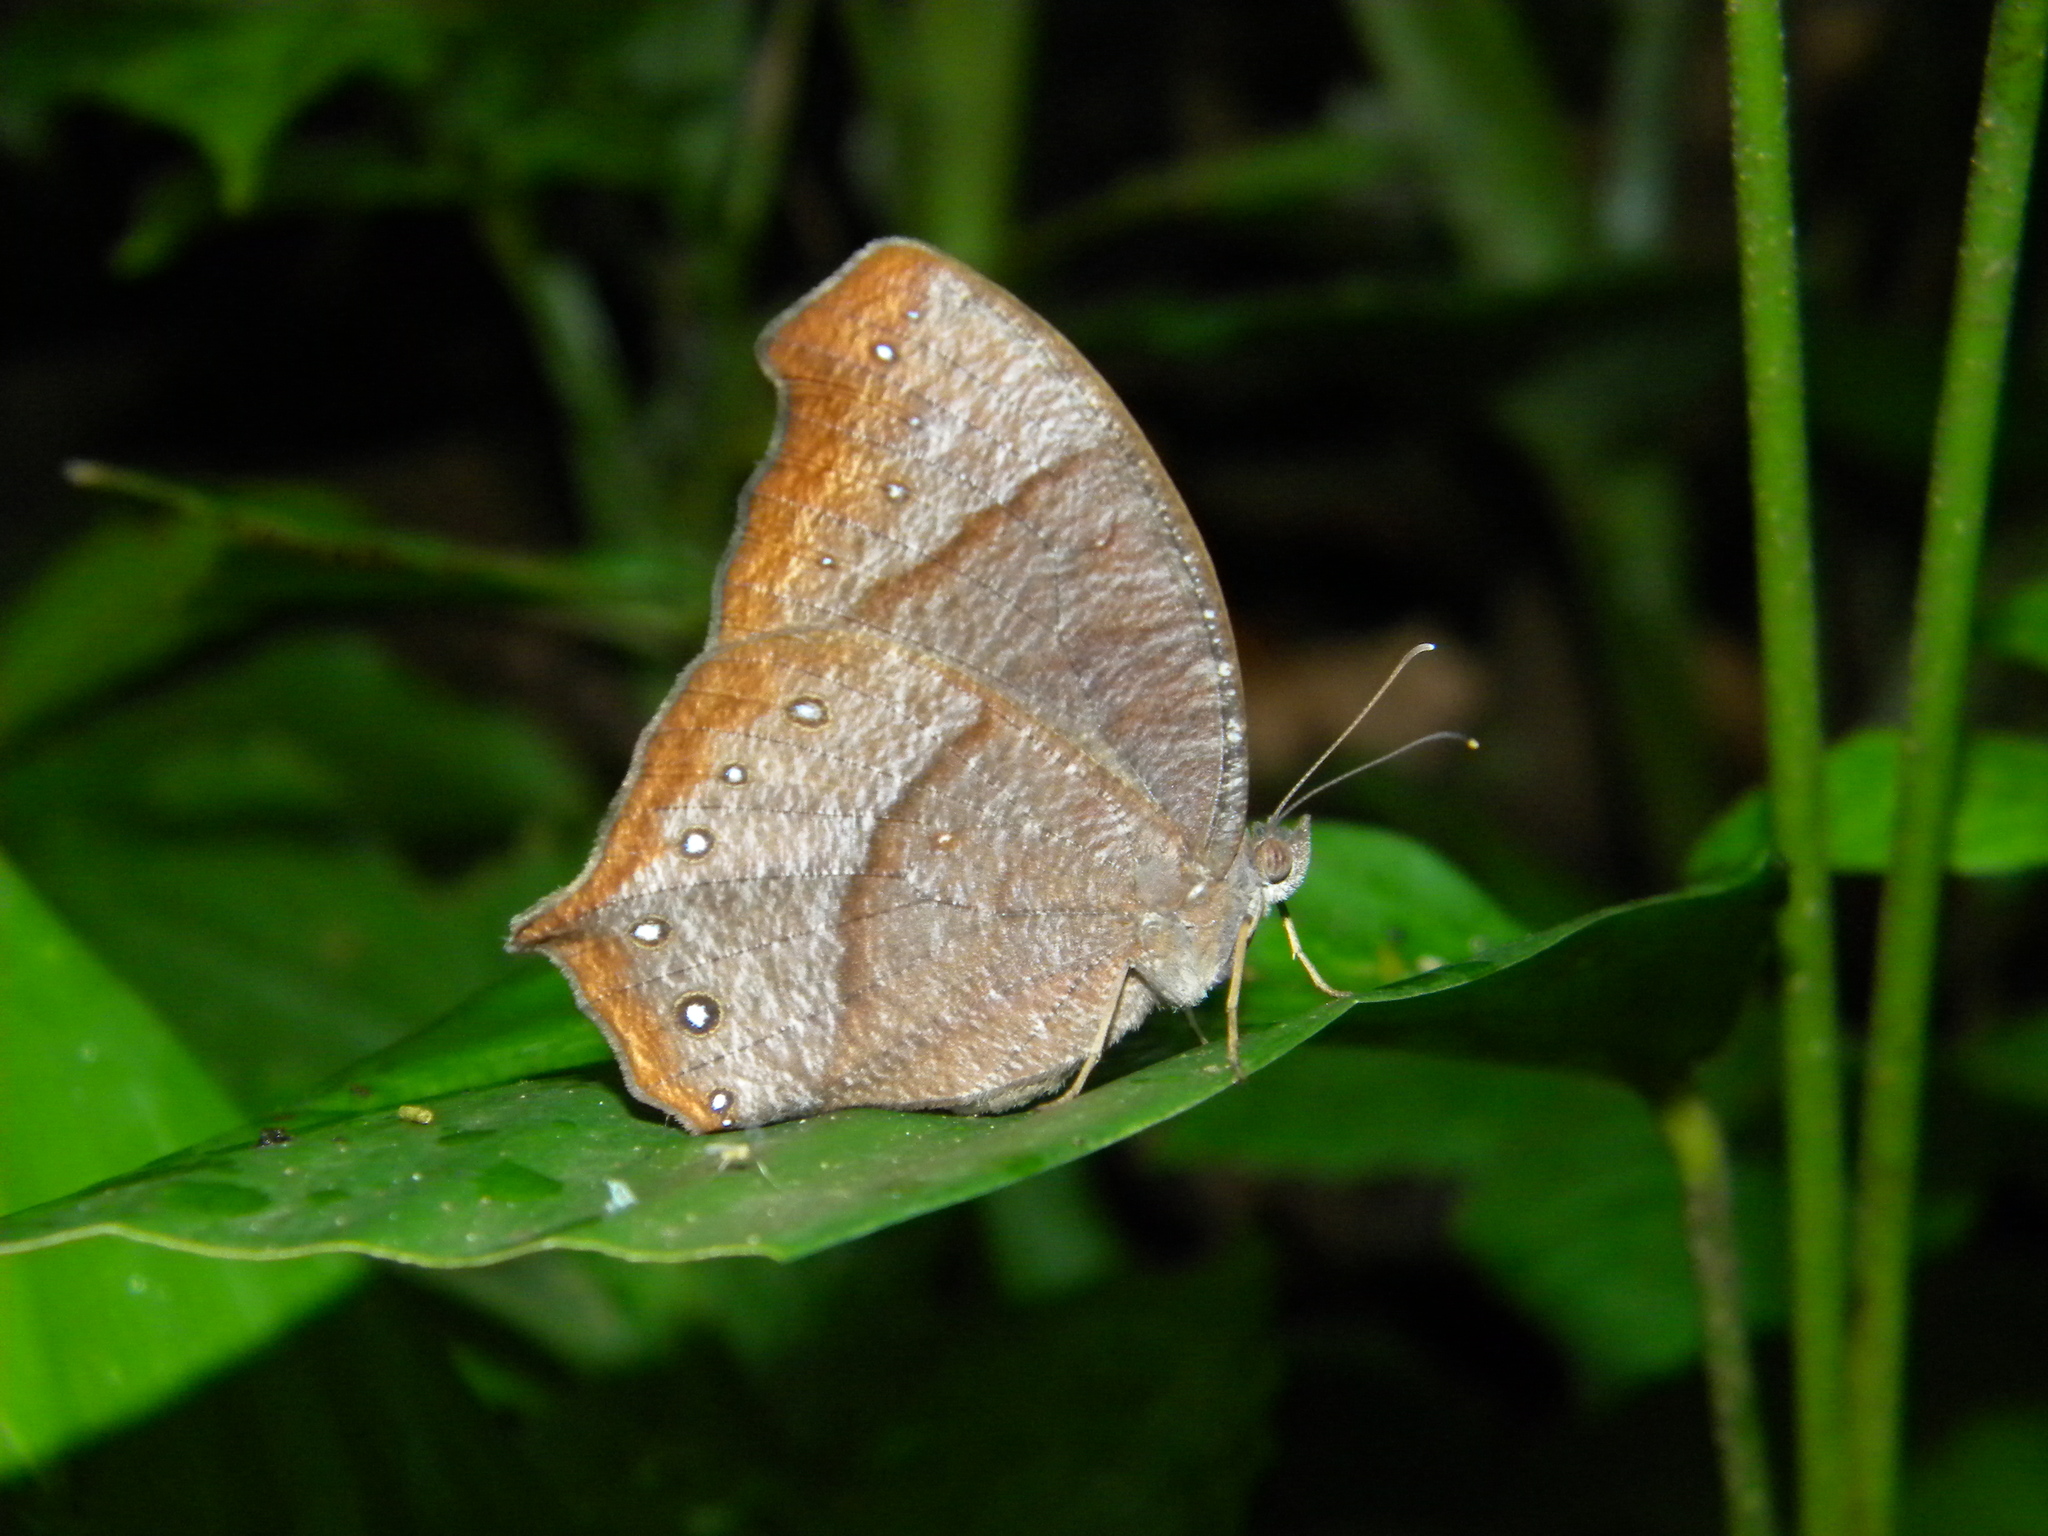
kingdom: Animalia
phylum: Arthropoda
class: Insecta
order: Lepidoptera
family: Nymphalidae
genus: Melanitis
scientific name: Melanitis phedima
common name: Dark evening brown
